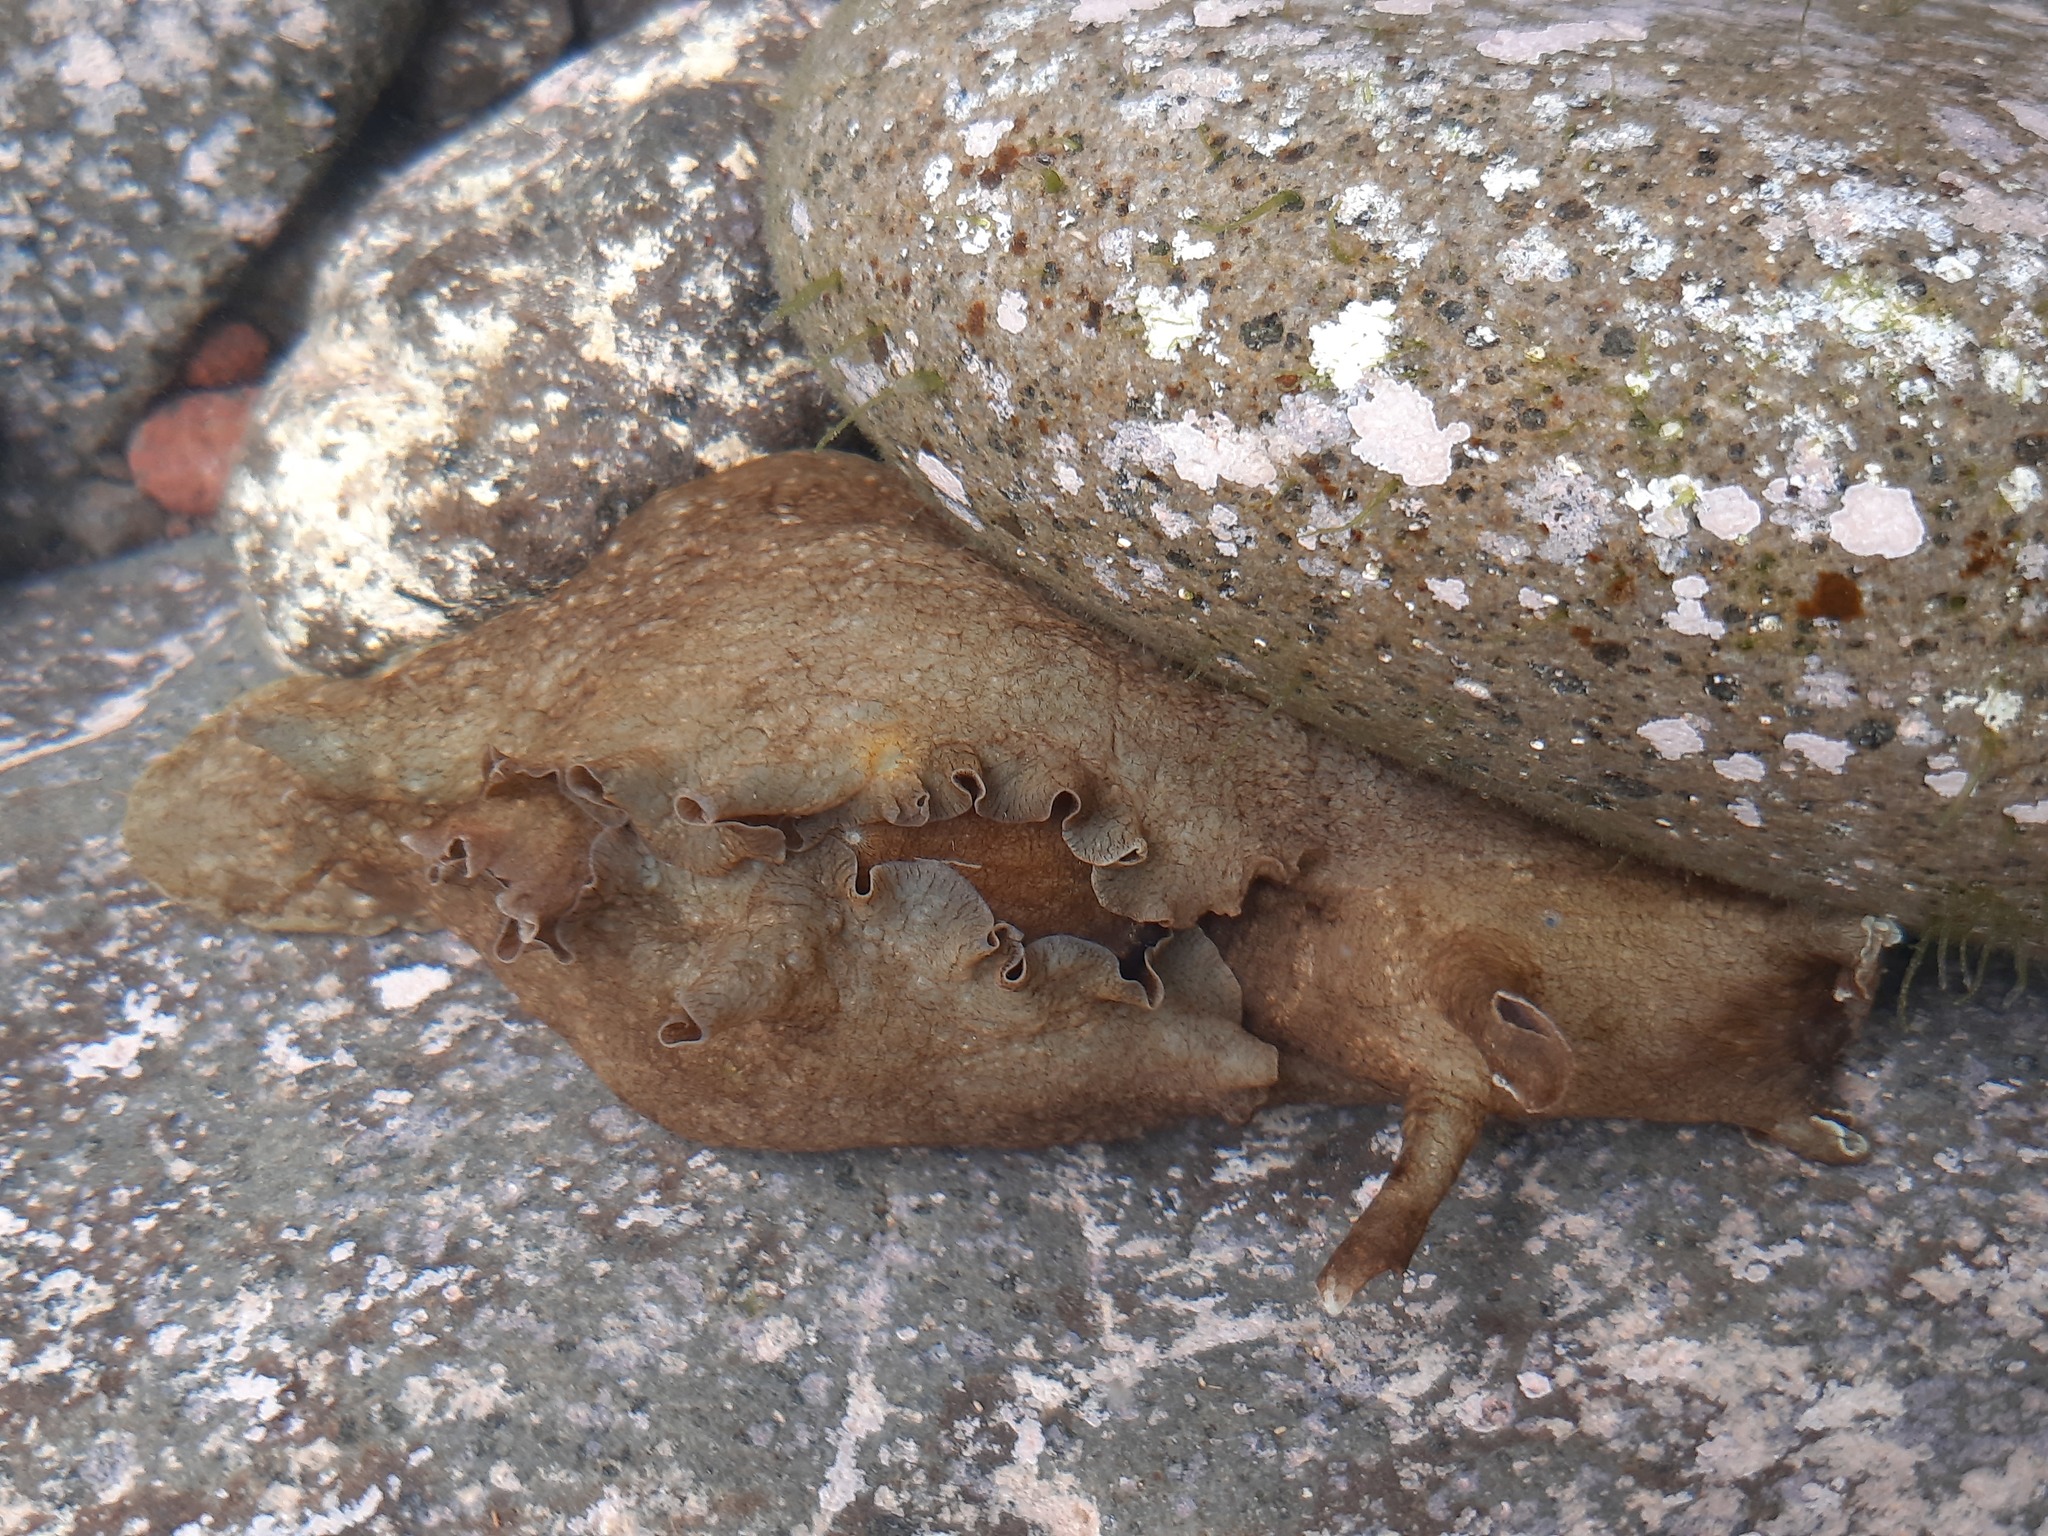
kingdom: Animalia
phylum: Mollusca
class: Gastropoda
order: Aplysiida
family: Aplysiidae
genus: Aplysia
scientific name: Aplysia juliana
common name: Walking sea hare
